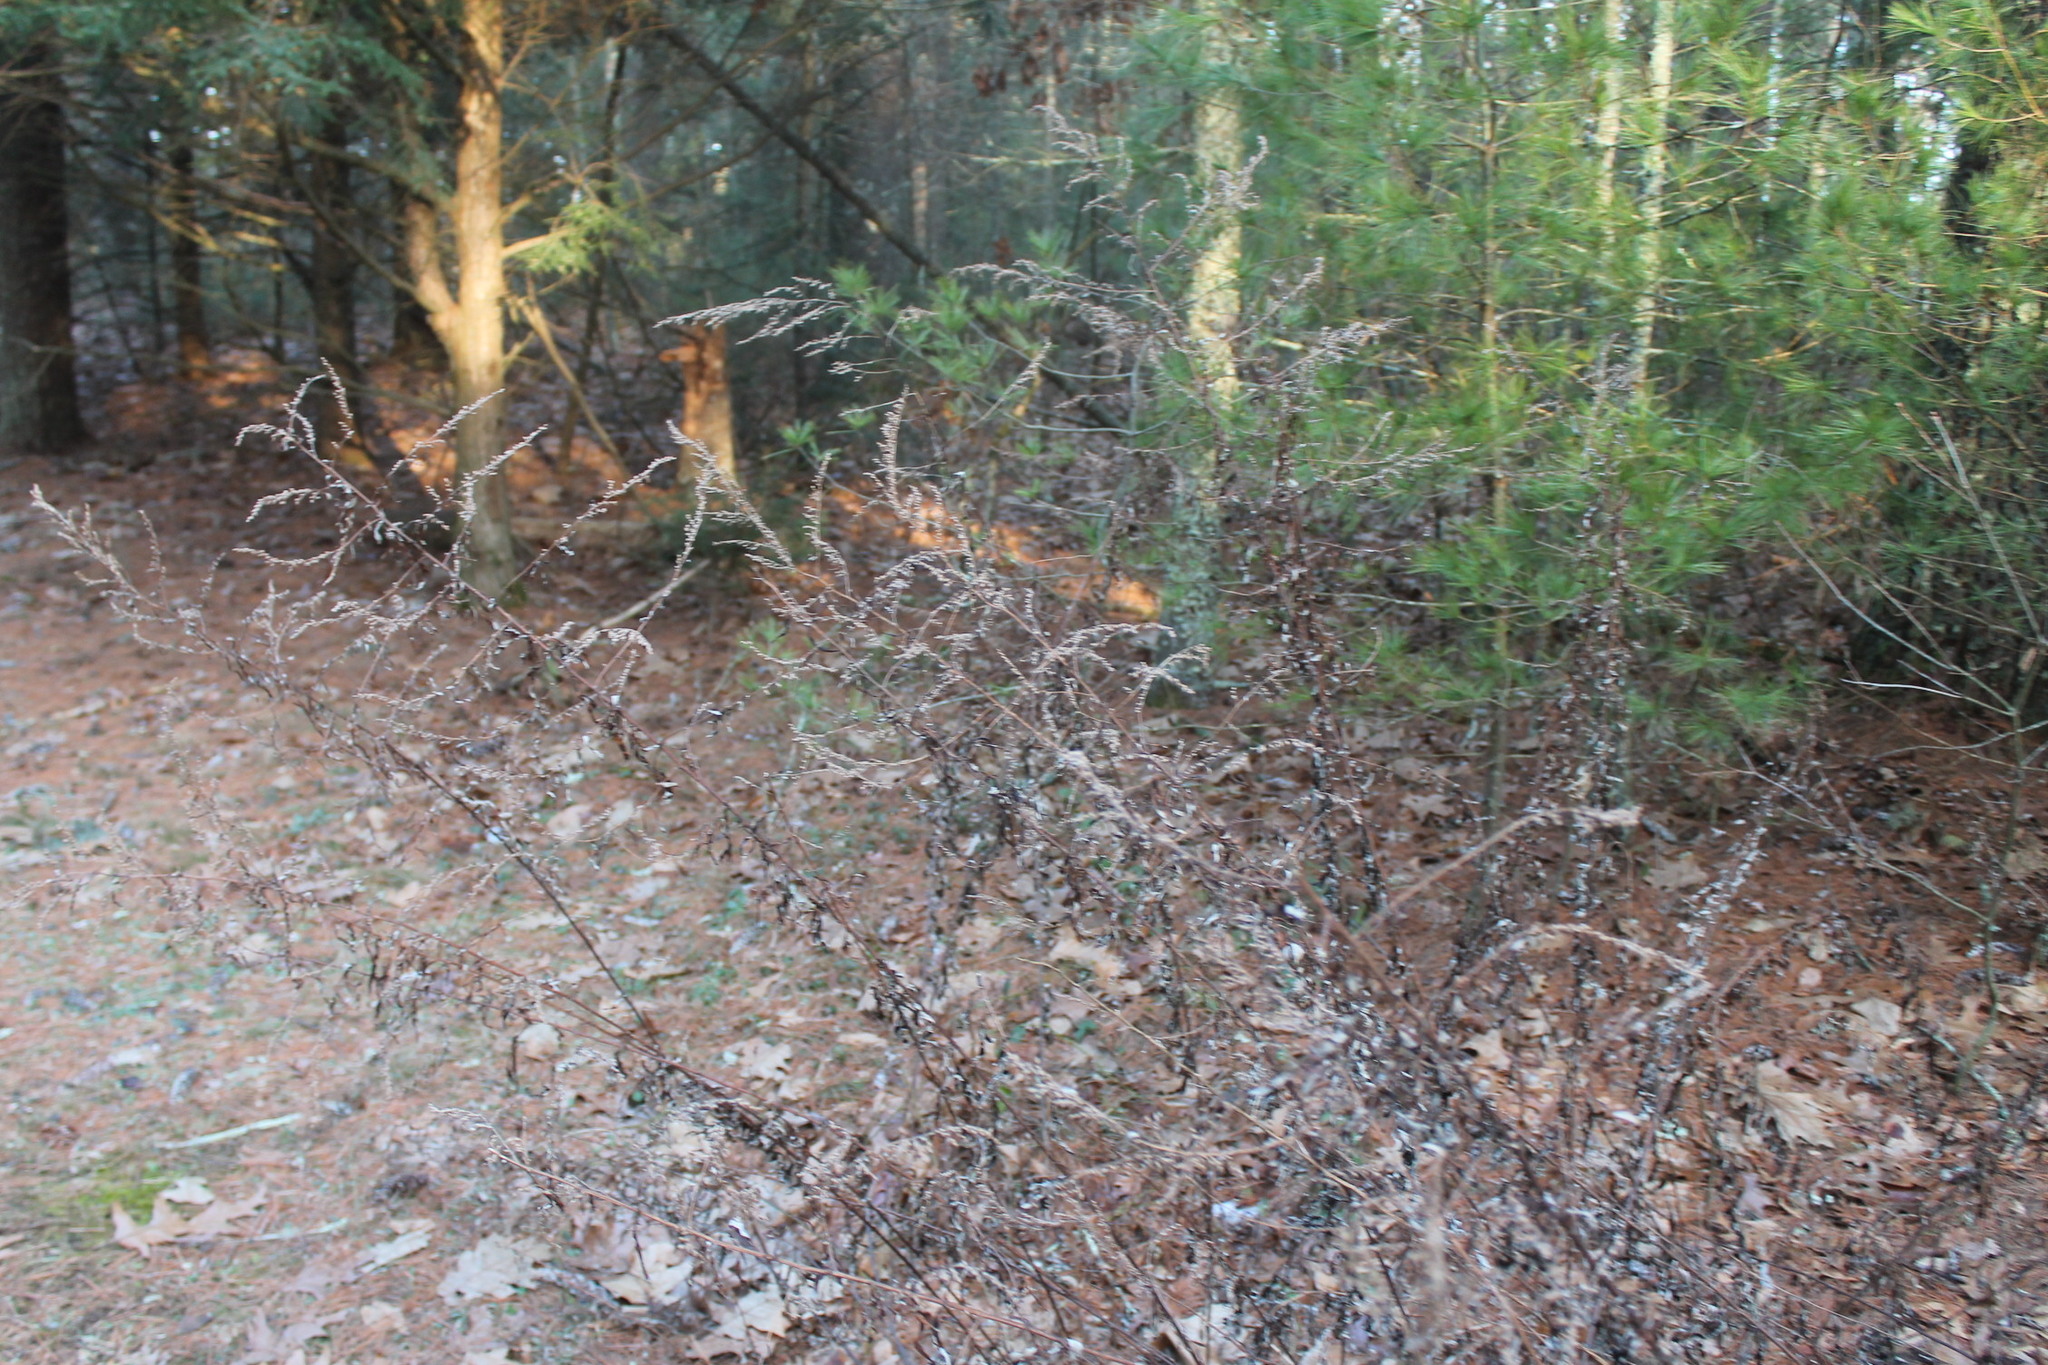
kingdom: Plantae
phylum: Tracheophyta
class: Magnoliopsida
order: Asterales
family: Asteraceae
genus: Artemisia
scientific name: Artemisia vulgaris
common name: Mugwort
